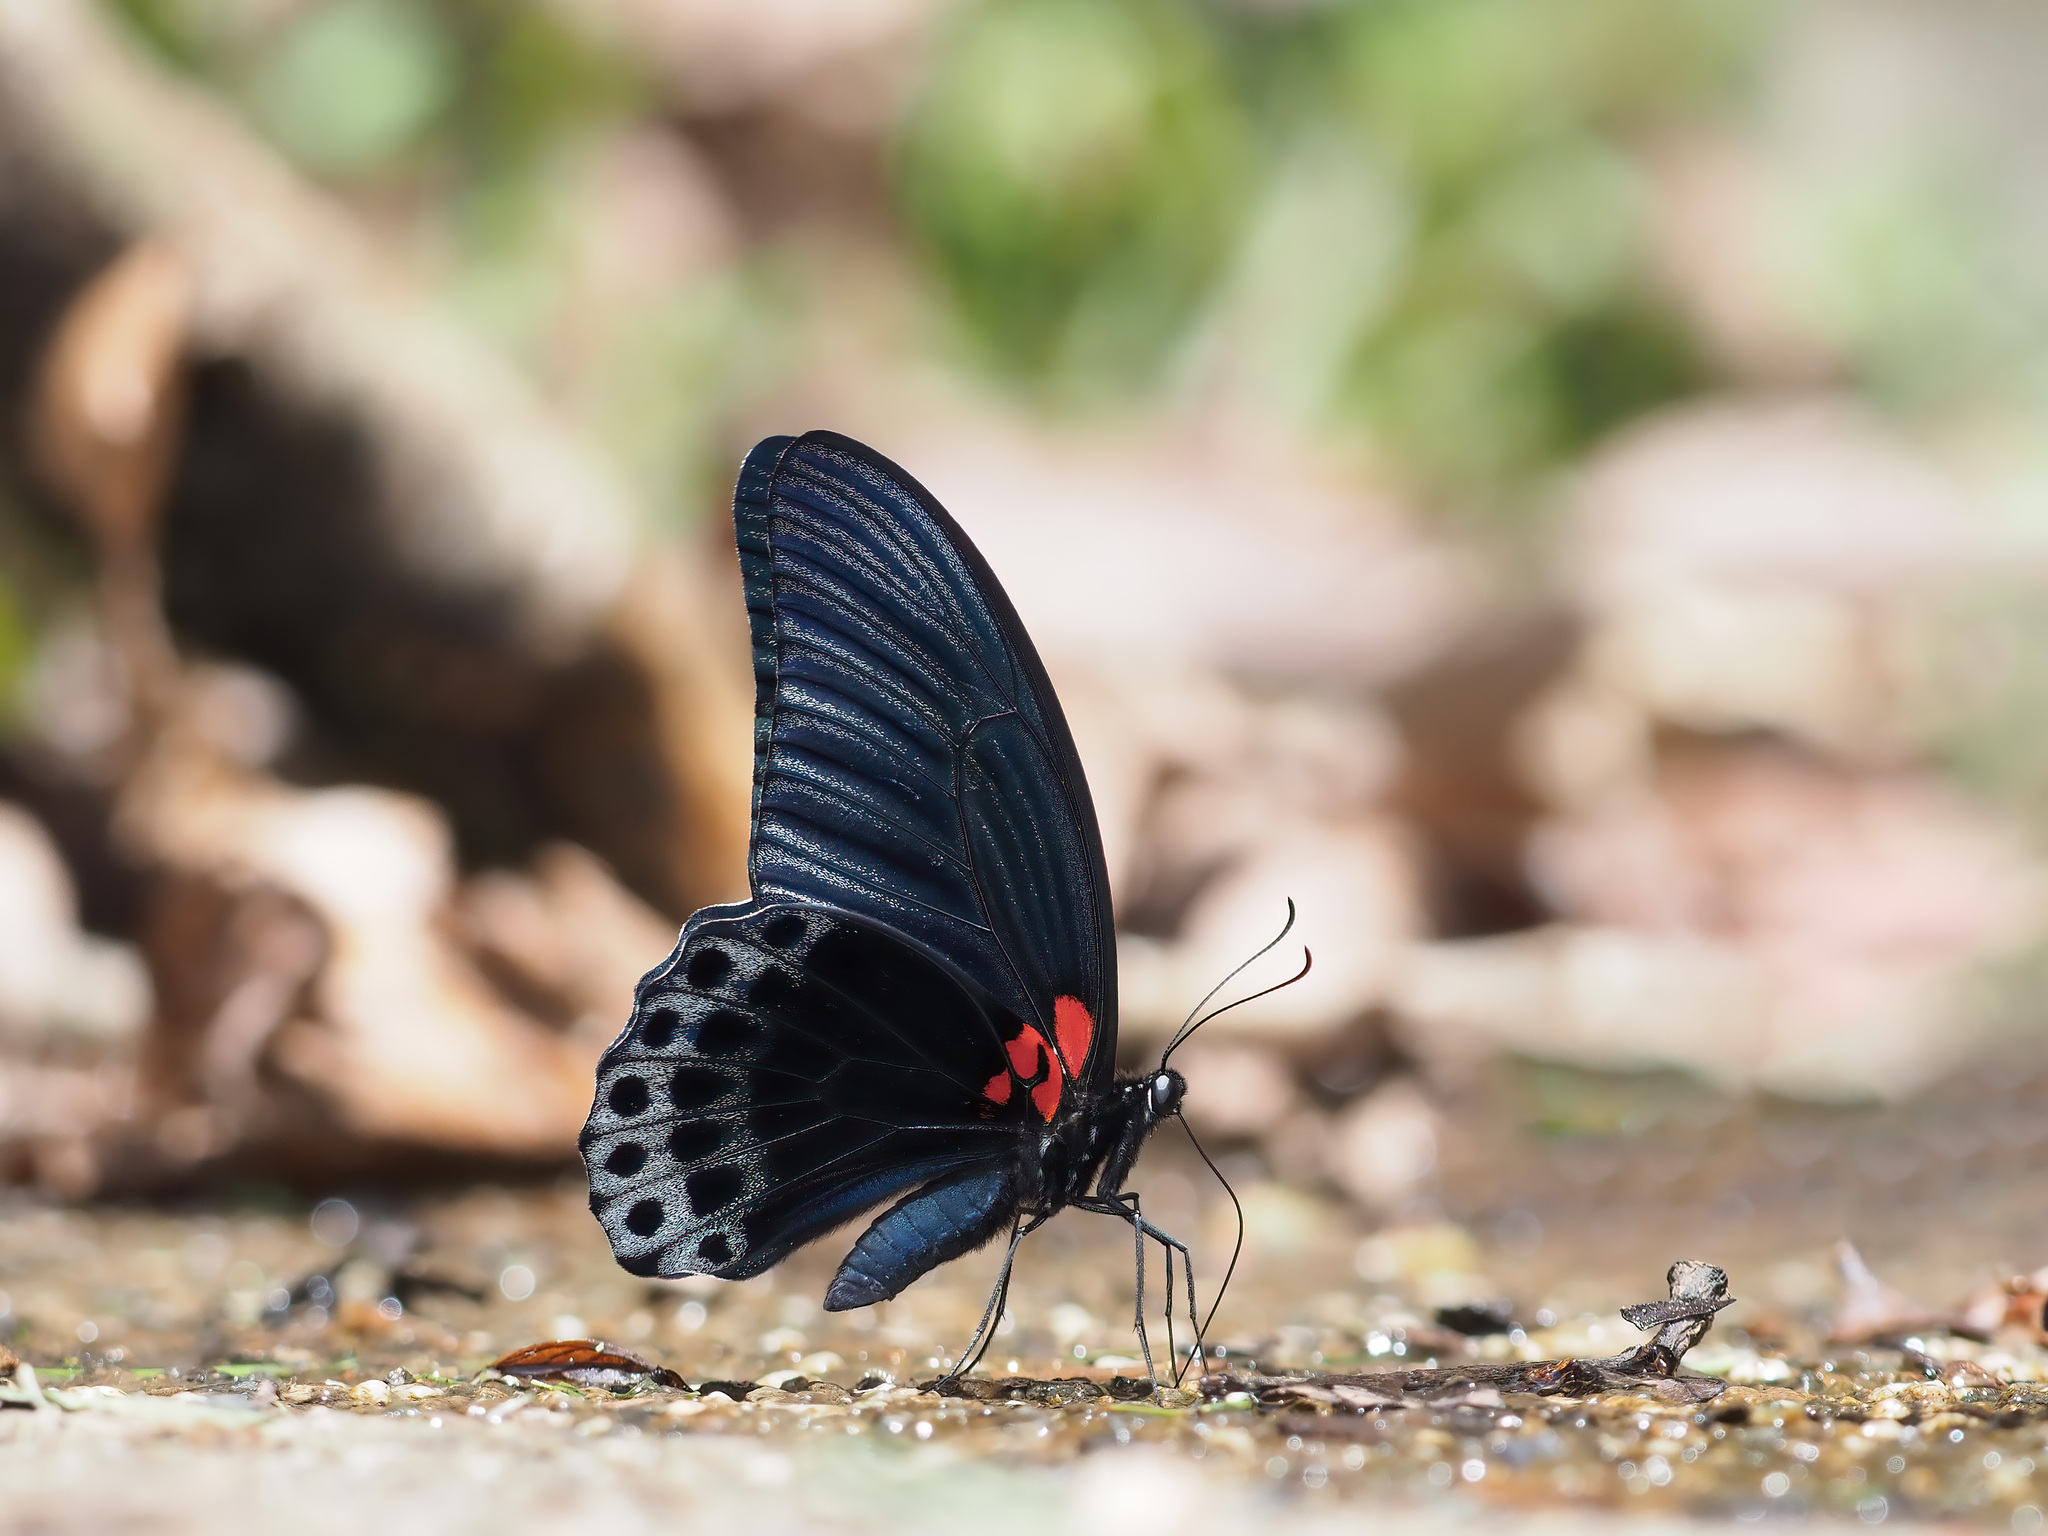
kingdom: Animalia
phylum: Arthropoda
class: Insecta
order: Lepidoptera
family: Papilionidae
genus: Papilio
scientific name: Papilio memnon
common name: Great mormon
